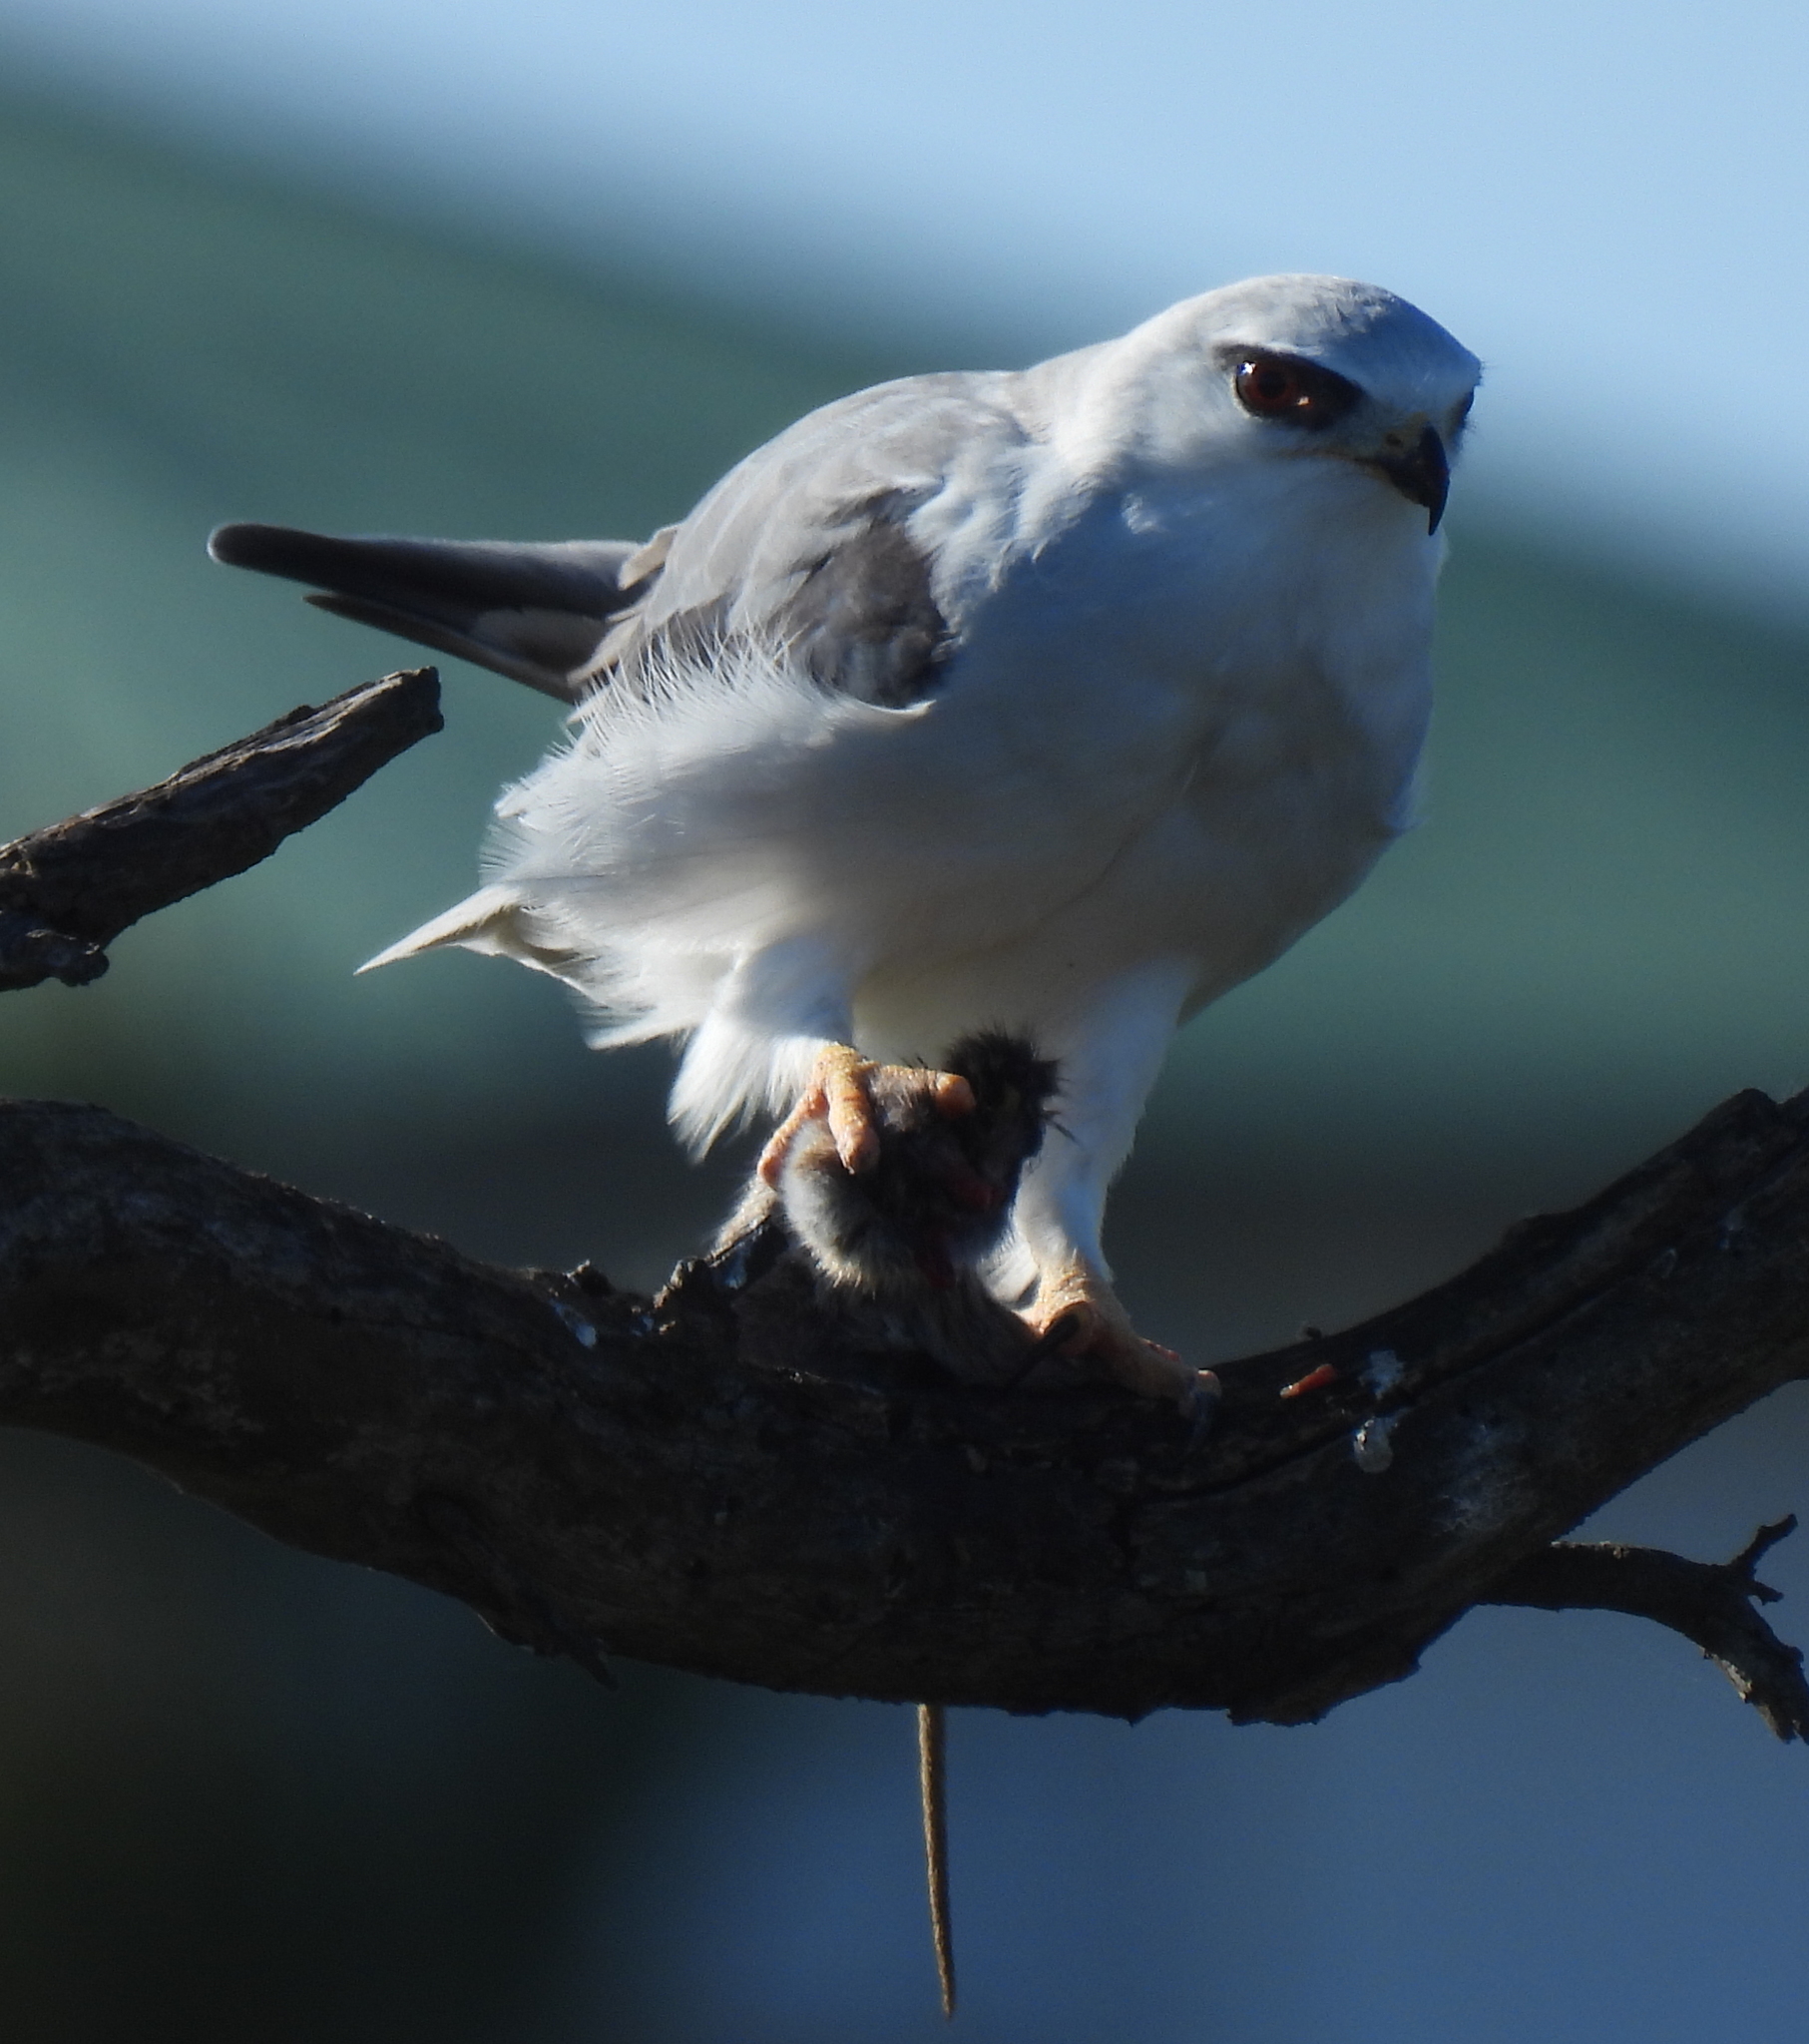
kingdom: Animalia
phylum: Chordata
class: Aves
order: Accipitriformes
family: Accipitridae
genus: Elanus
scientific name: Elanus caeruleus
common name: Black-winged kite
